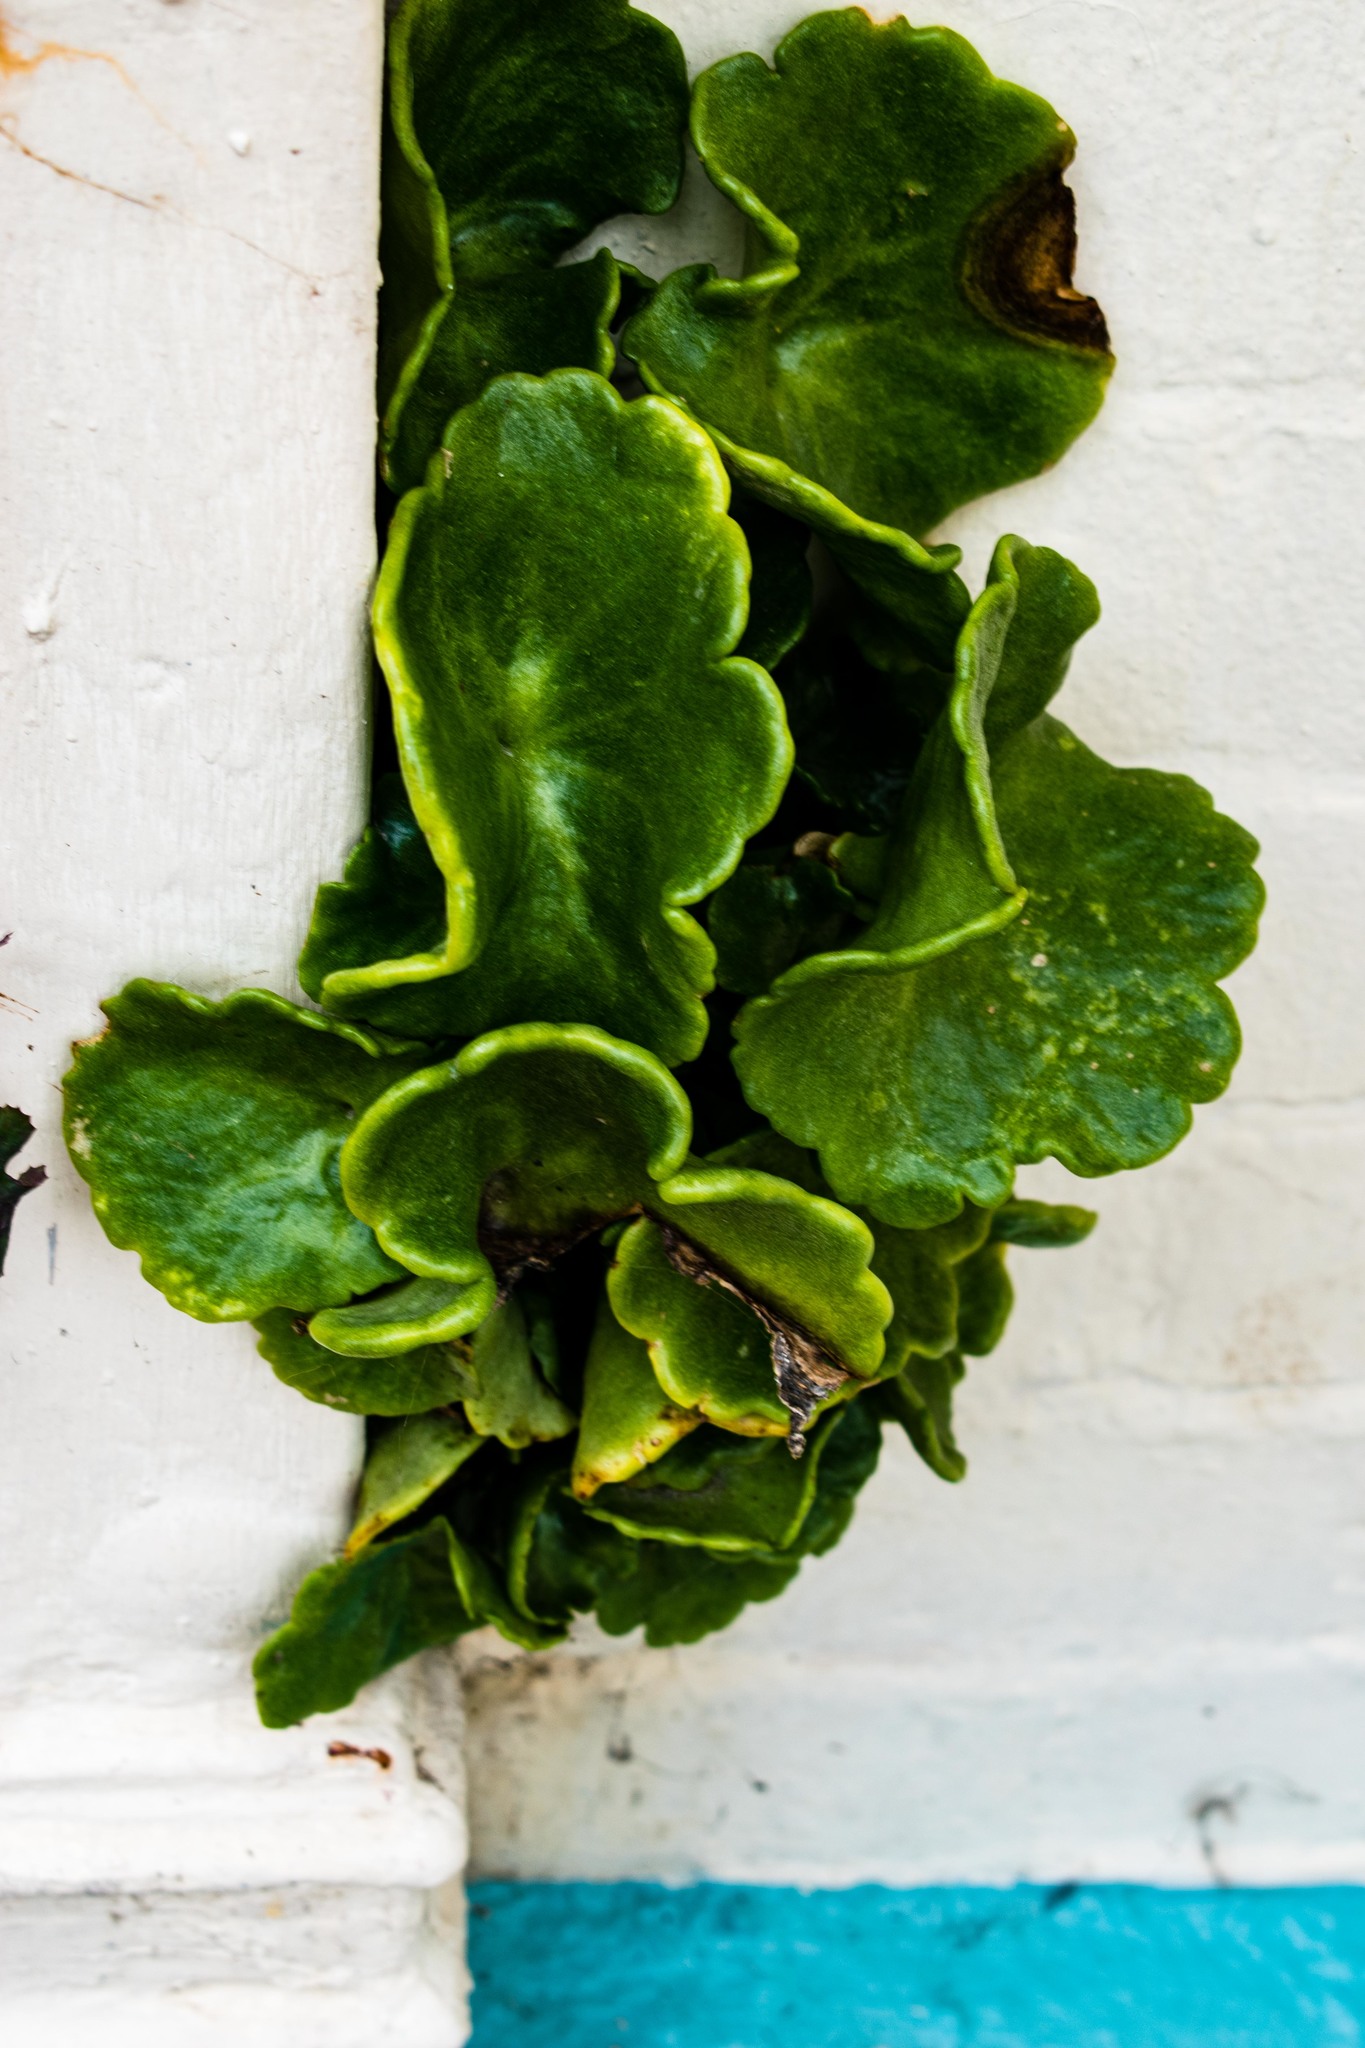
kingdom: Plantae
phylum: Tracheophyta
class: Magnoliopsida
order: Saxifragales
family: Crassulaceae
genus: Umbilicus
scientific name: Umbilicus rupestris
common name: Navelwort
